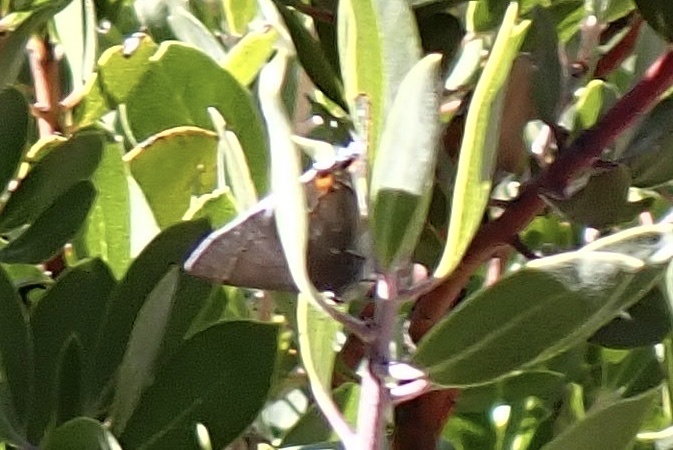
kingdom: Animalia
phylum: Arthropoda
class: Insecta
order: Lepidoptera
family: Lycaenidae
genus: Strymon
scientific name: Strymon melinus
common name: Gray hairstreak
